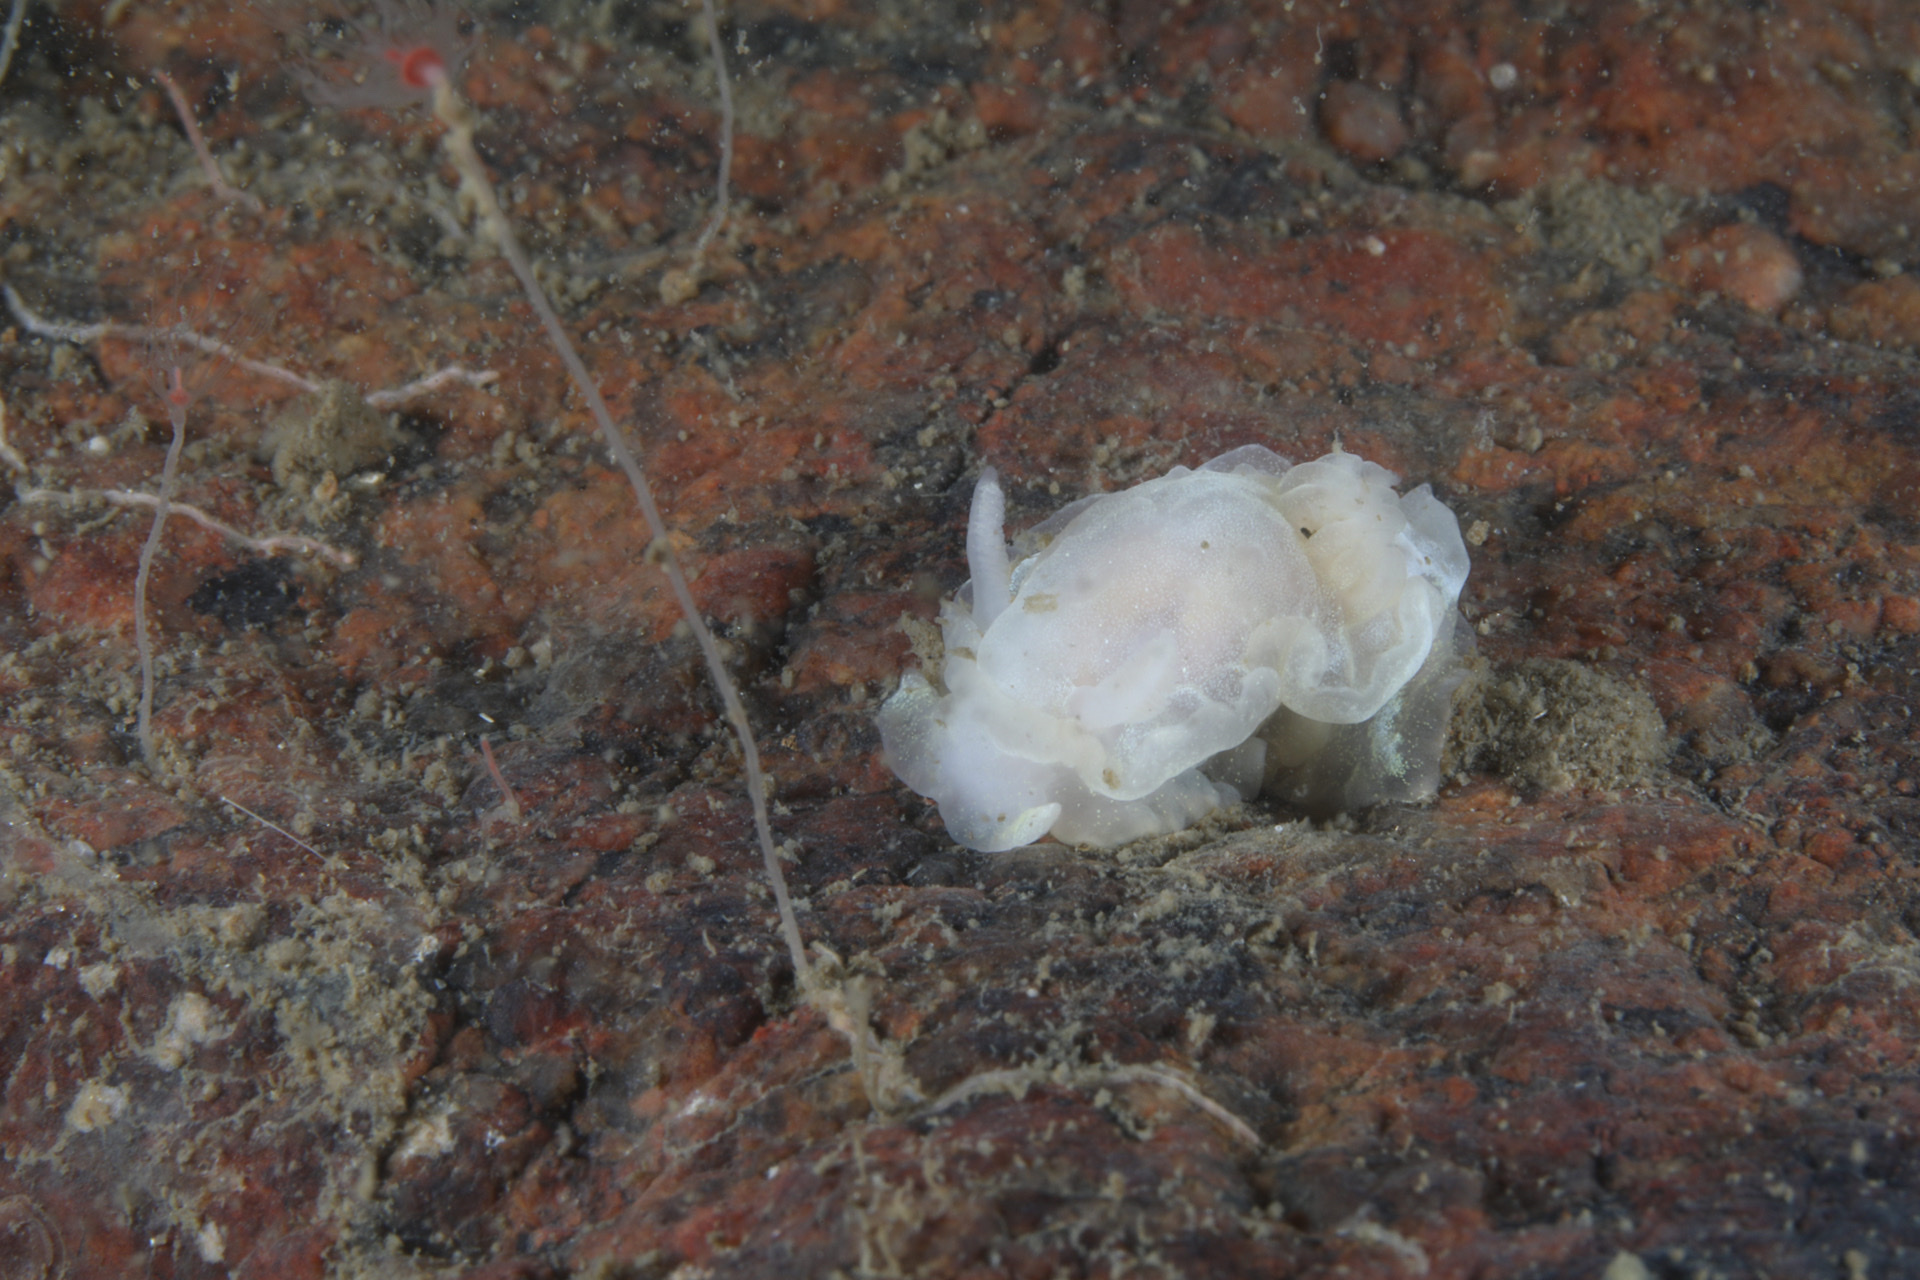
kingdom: Animalia
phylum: Mollusca
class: Gastropoda
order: Nudibranchia
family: Goniodorididae
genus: Okenia
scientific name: Okenia
